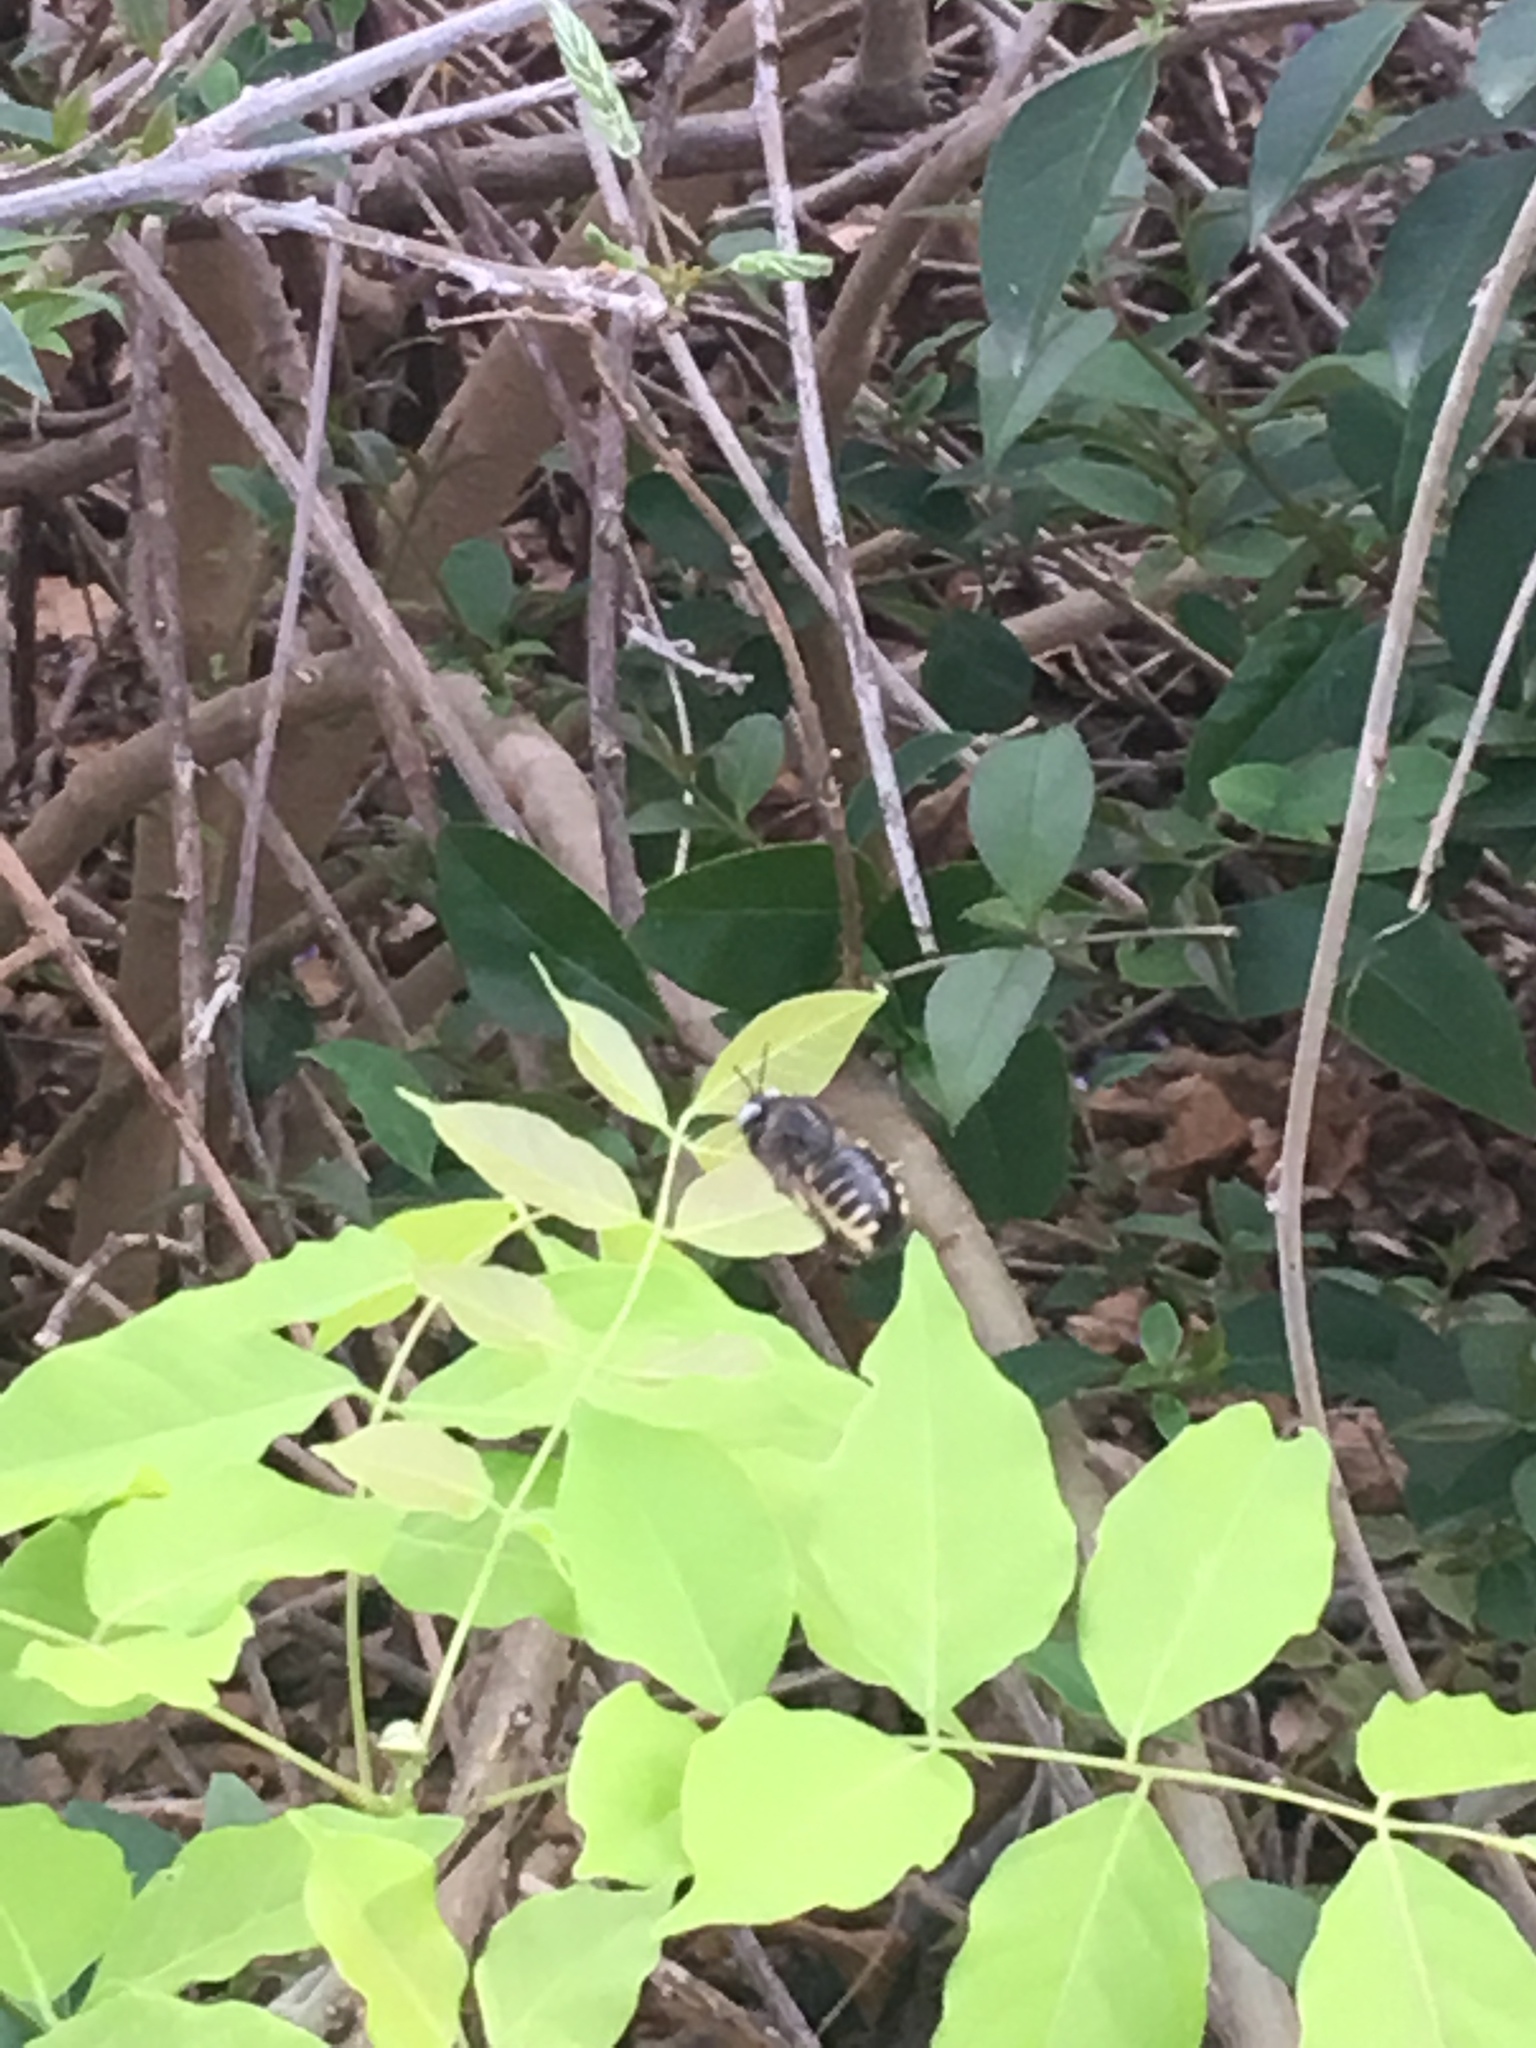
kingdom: Animalia
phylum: Arthropoda
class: Insecta
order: Hymenoptera
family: Apidae
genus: Xylocopa
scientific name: Xylocopa tabaniformis
